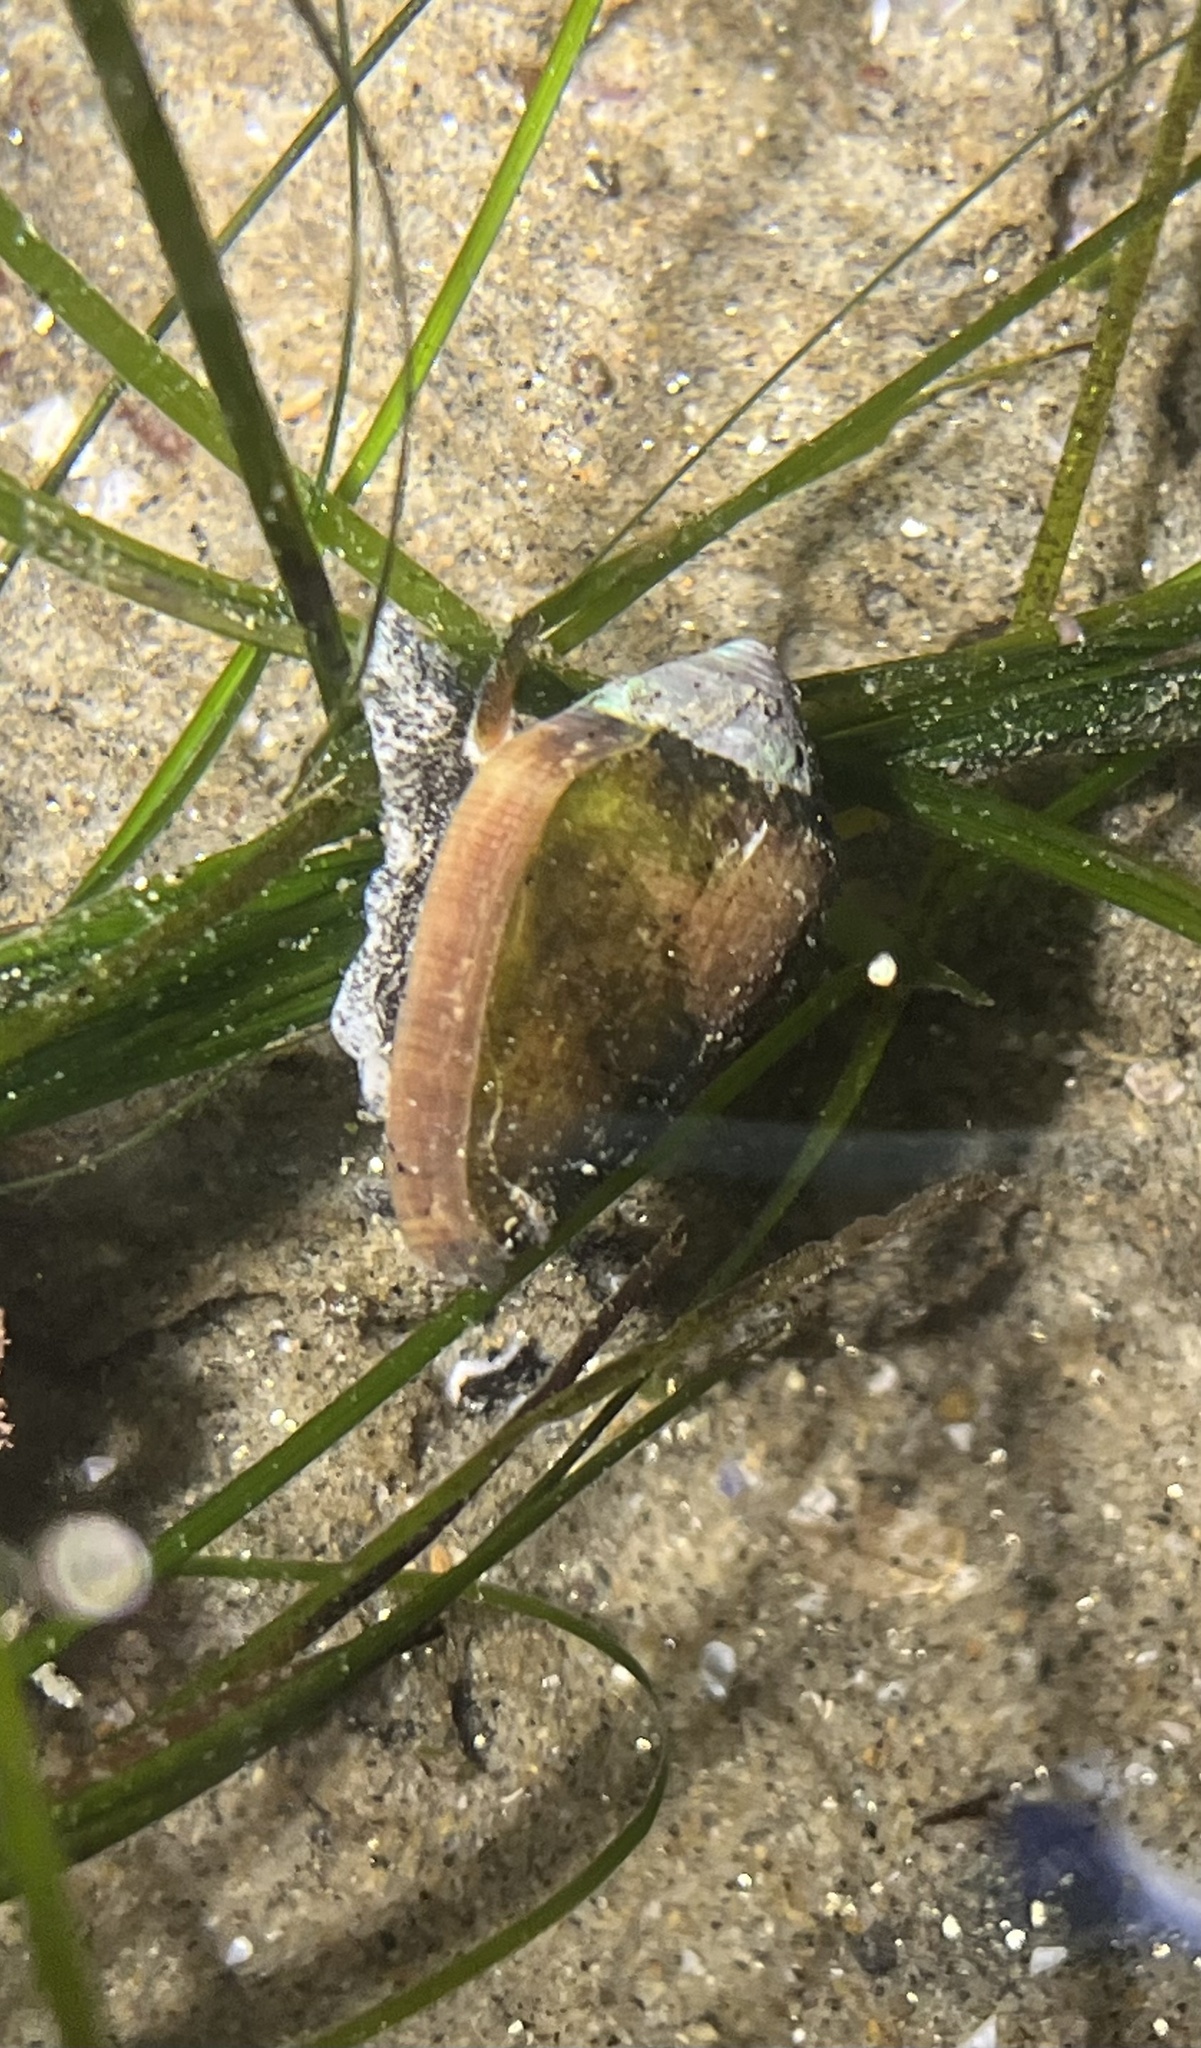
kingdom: Animalia
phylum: Mollusca
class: Gastropoda
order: Neogastropoda
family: Conidae
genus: Californiconus
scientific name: Californiconus californicus
